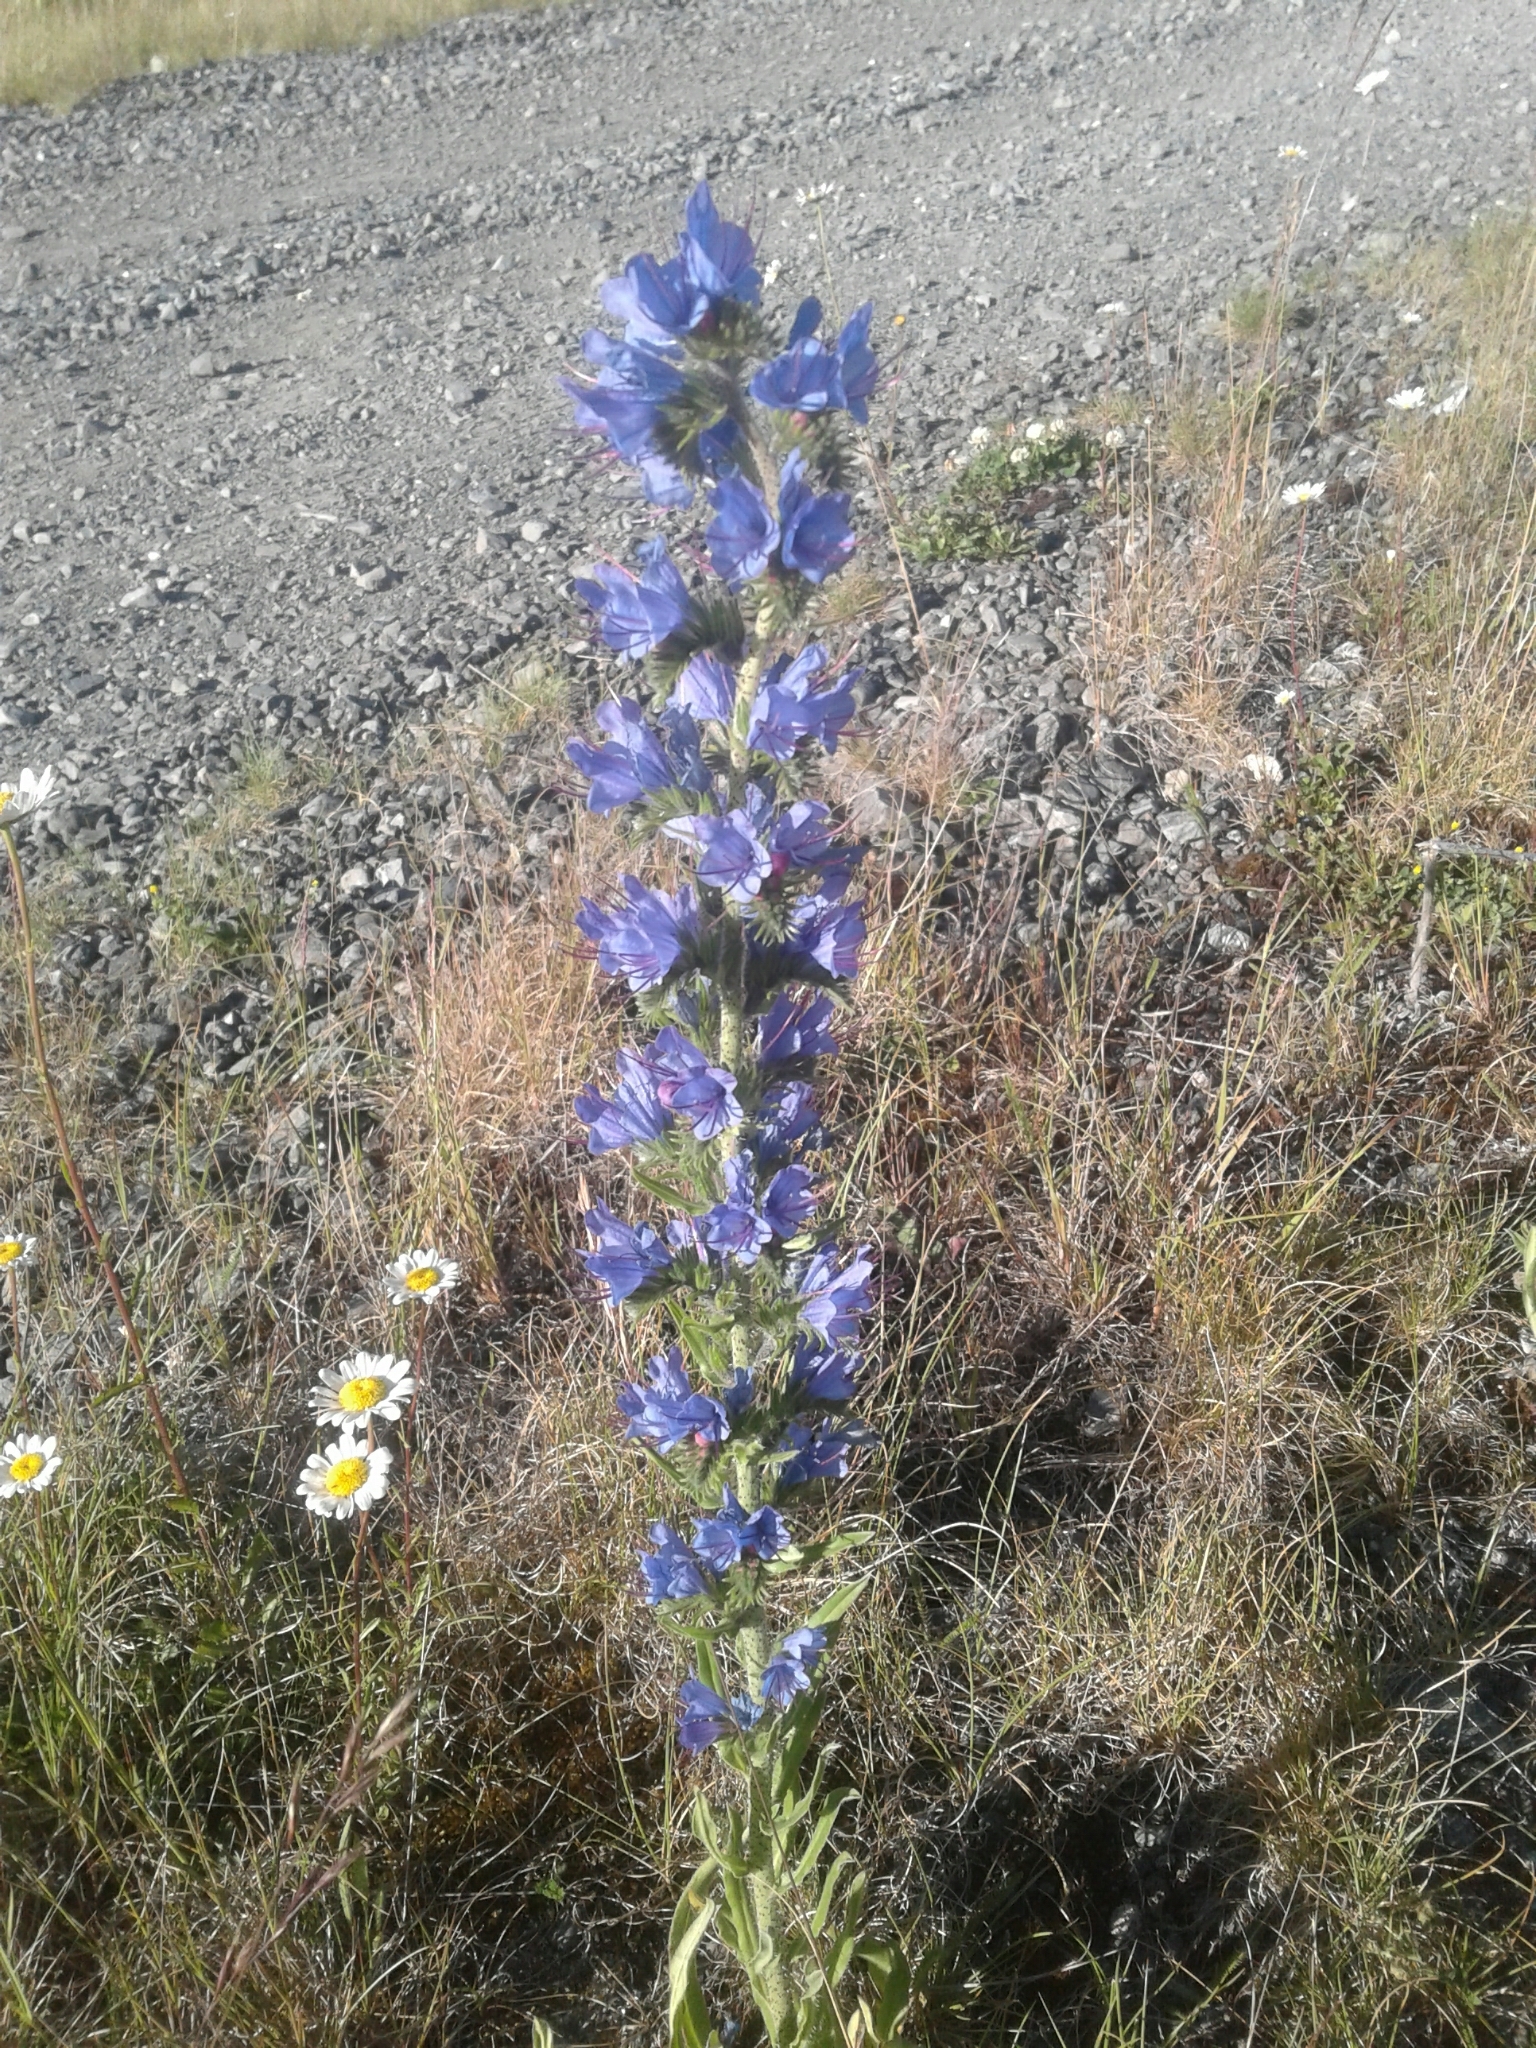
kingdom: Plantae
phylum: Tracheophyta
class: Magnoliopsida
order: Boraginales
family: Boraginaceae
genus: Echium
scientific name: Echium vulgare
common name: Common viper's bugloss
